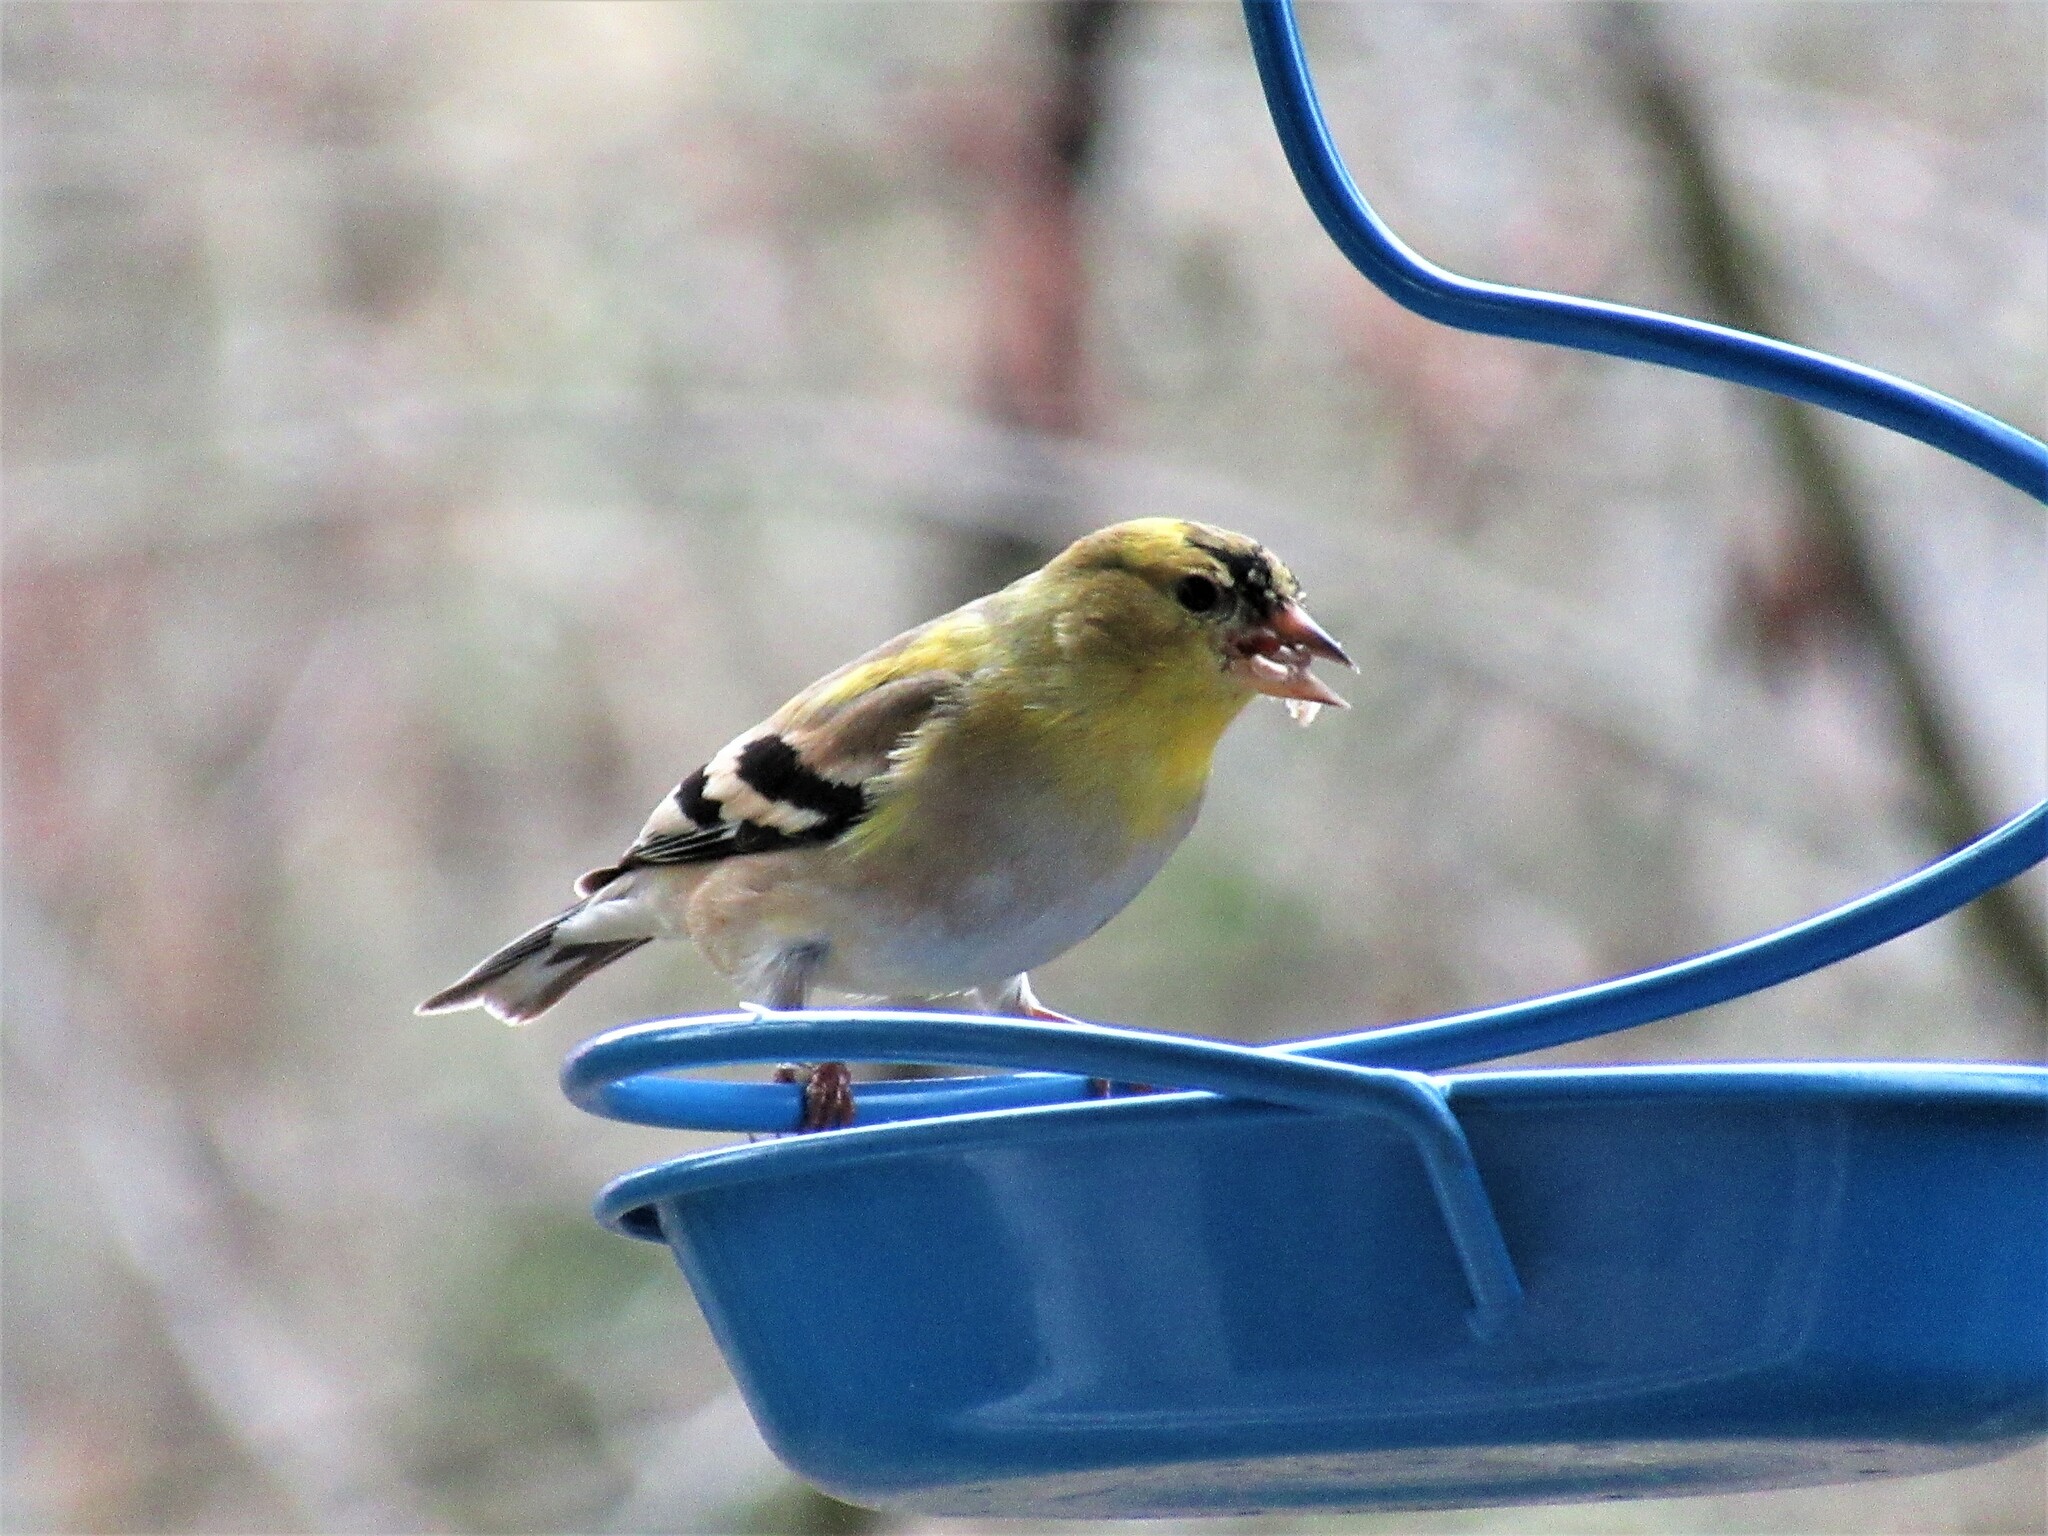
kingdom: Animalia
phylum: Chordata
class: Aves
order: Passeriformes
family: Fringillidae
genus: Spinus
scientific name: Spinus tristis
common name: American goldfinch
